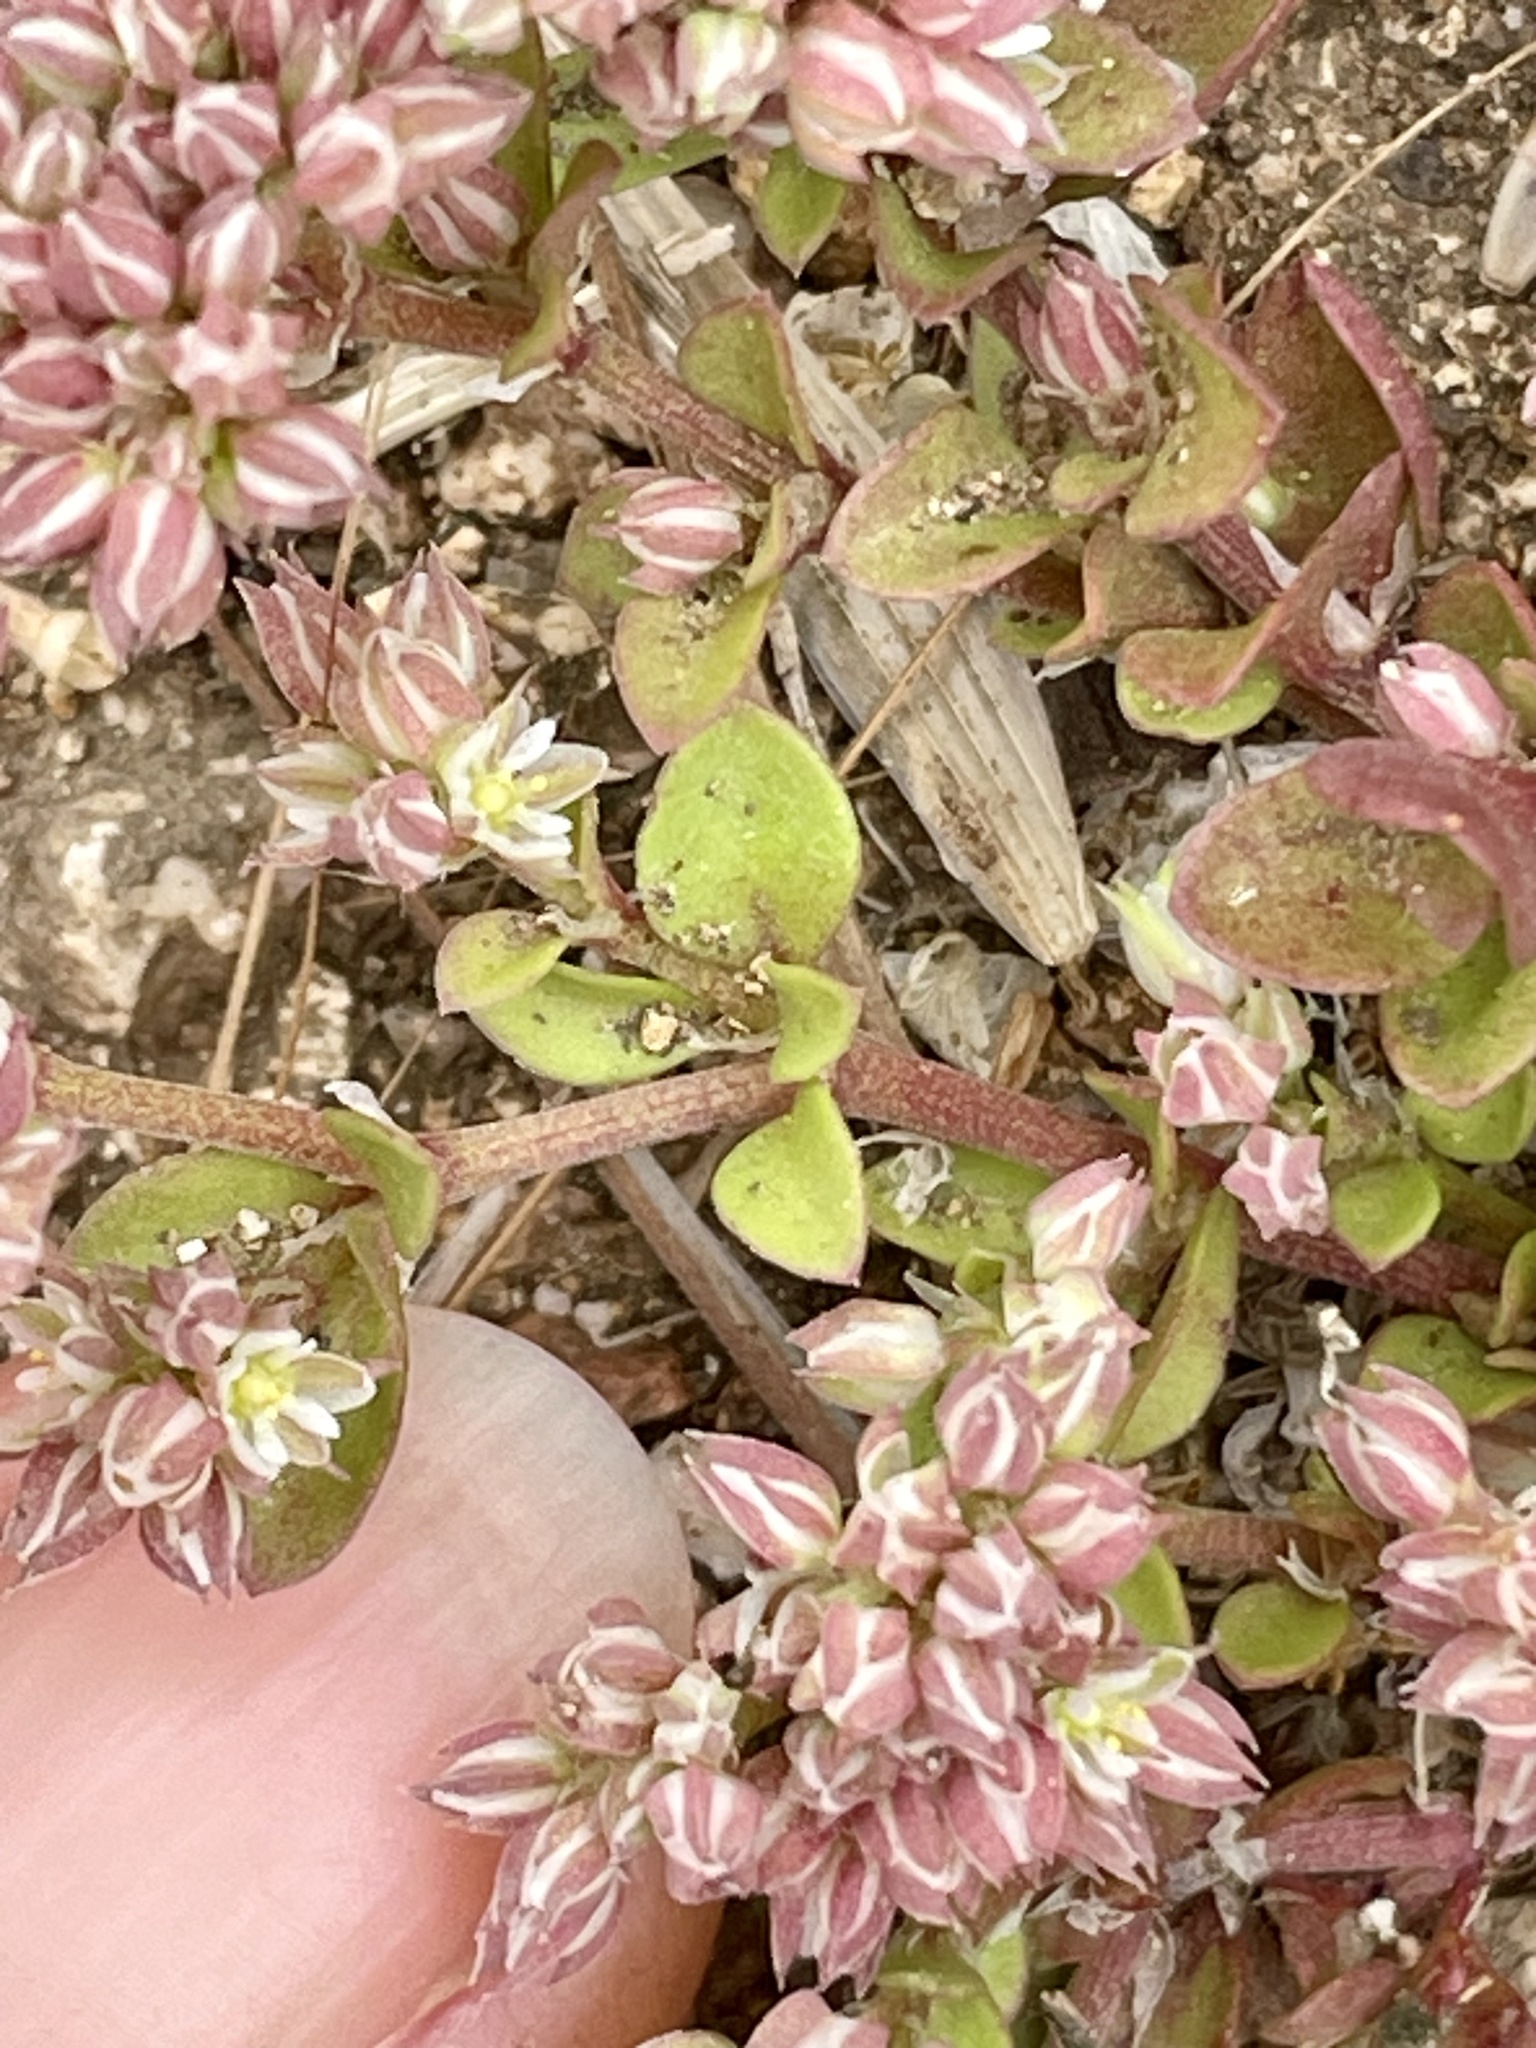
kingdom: Plantae
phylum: Tracheophyta
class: Magnoliopsida
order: Caryophyllales
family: Caryophyllaceae
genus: Polycarpon
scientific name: Polycarpon tetraphyllum
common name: Four-leaved all-seed
